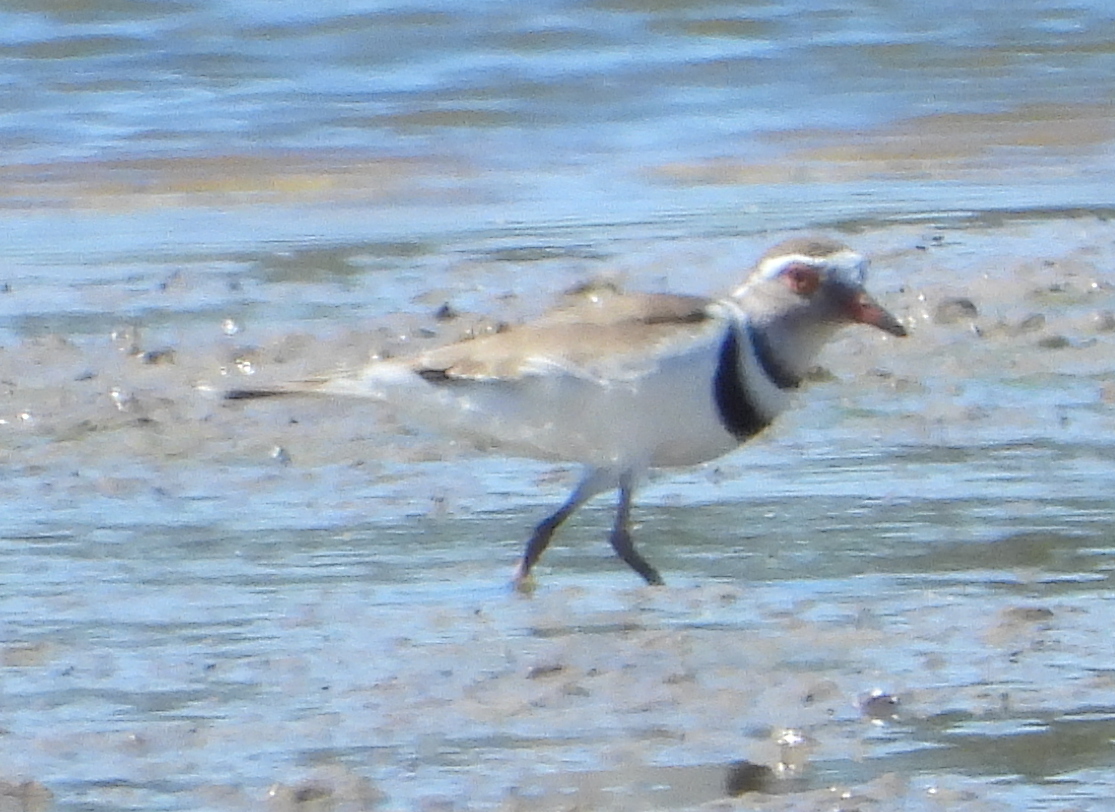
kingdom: Animalia
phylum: Chordata
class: Aves
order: Charadriiformes
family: Charadriidae
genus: Charadrius
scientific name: Charadrius tricollaris
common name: Three-banded plover
